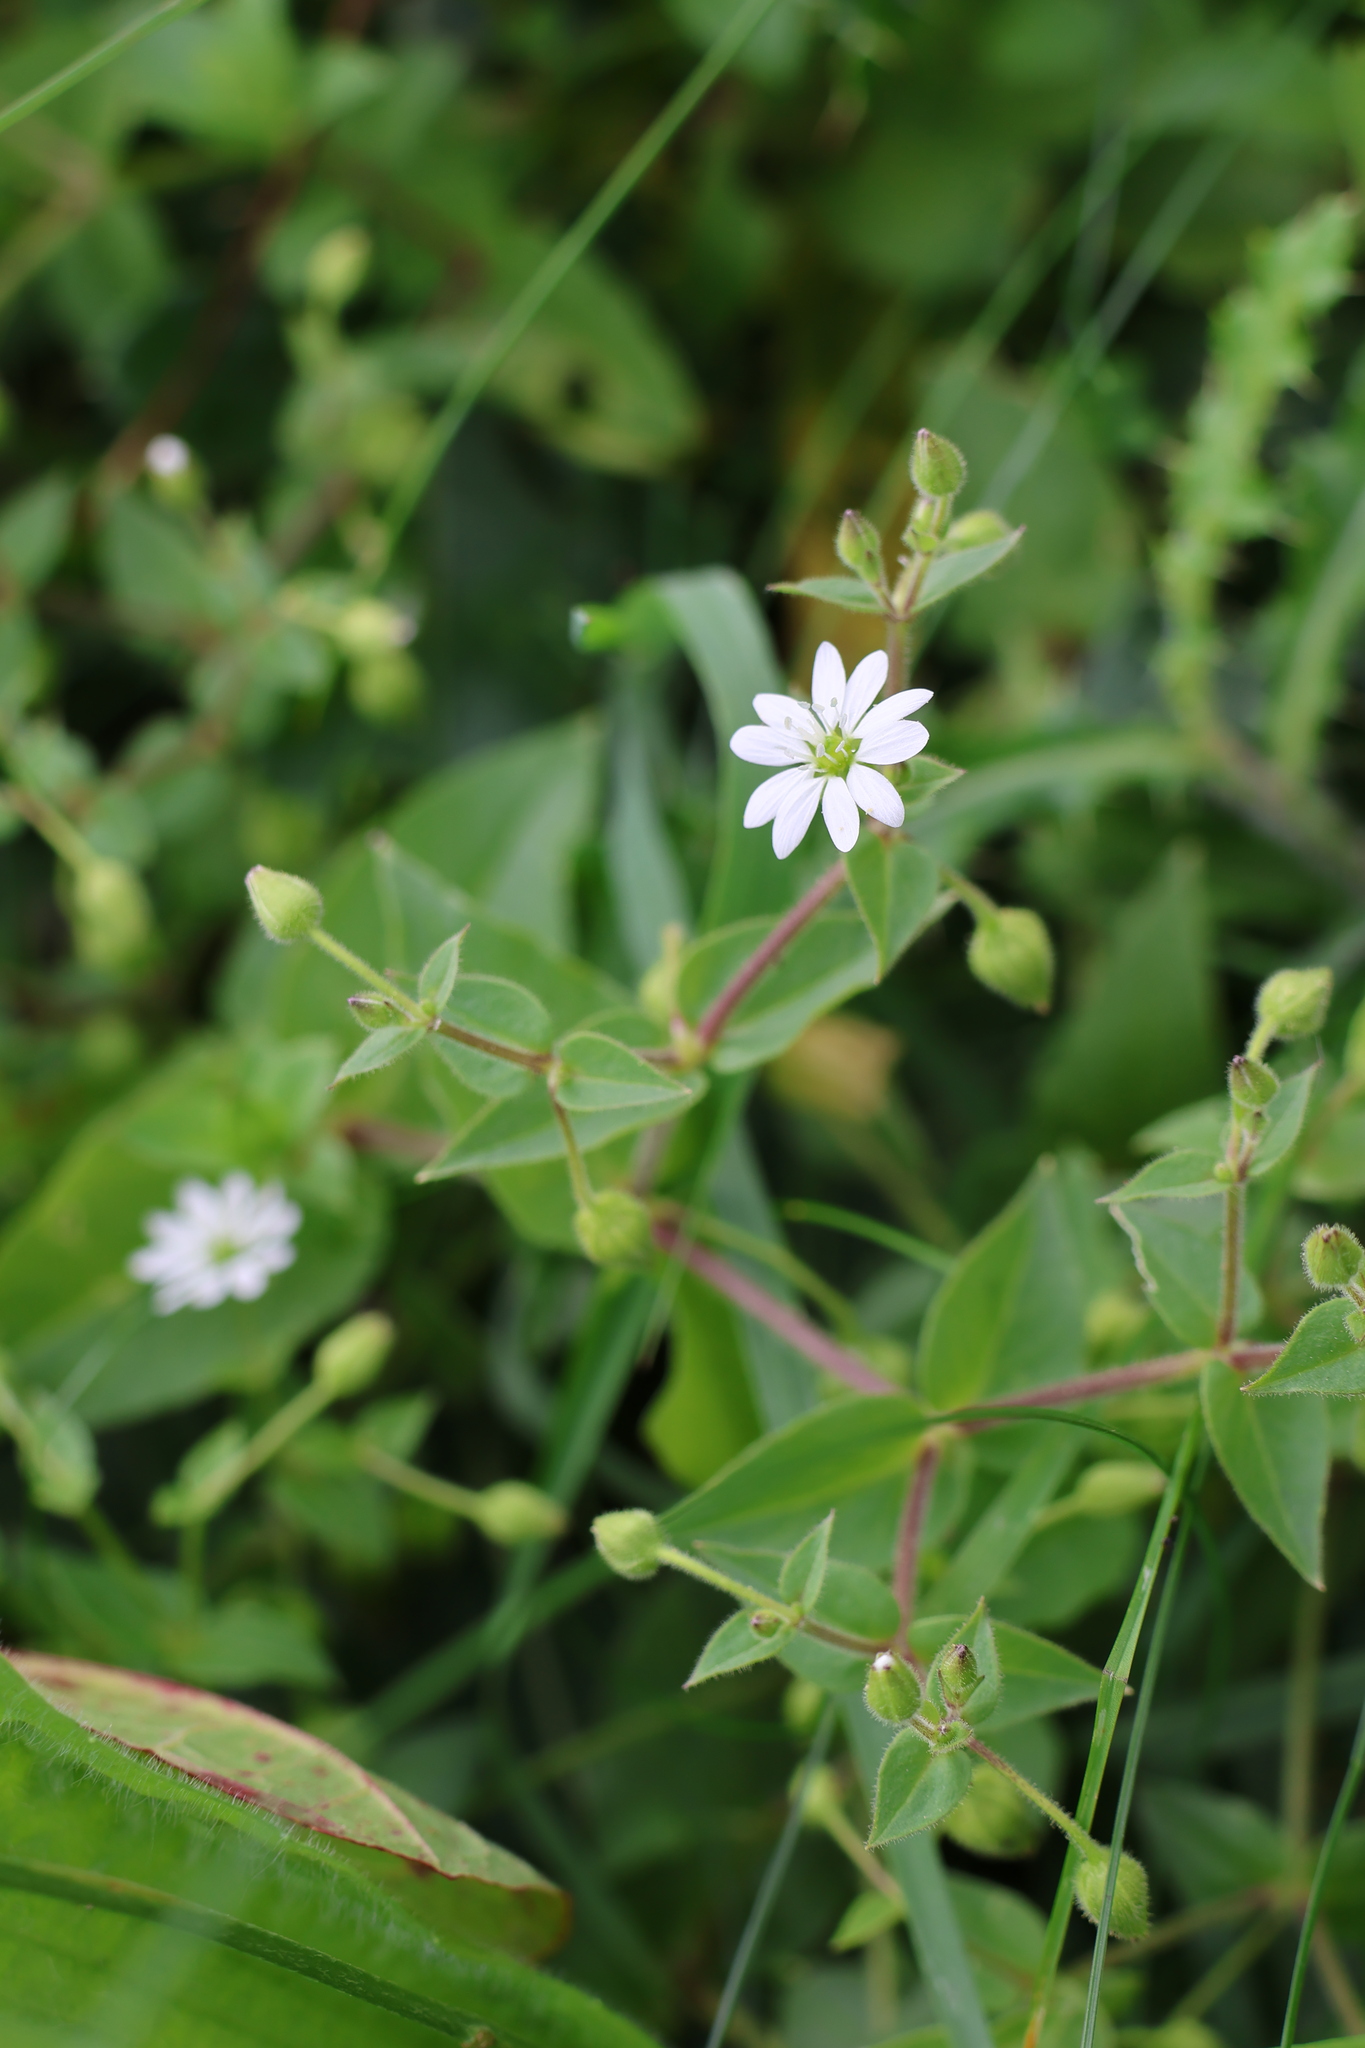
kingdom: Plantae
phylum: Tracheophyta
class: Magnoliopsida
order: Caryophyllales
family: Caryophyllaceae
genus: Stellaria
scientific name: Stellaria aquatica
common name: Water chickweed
